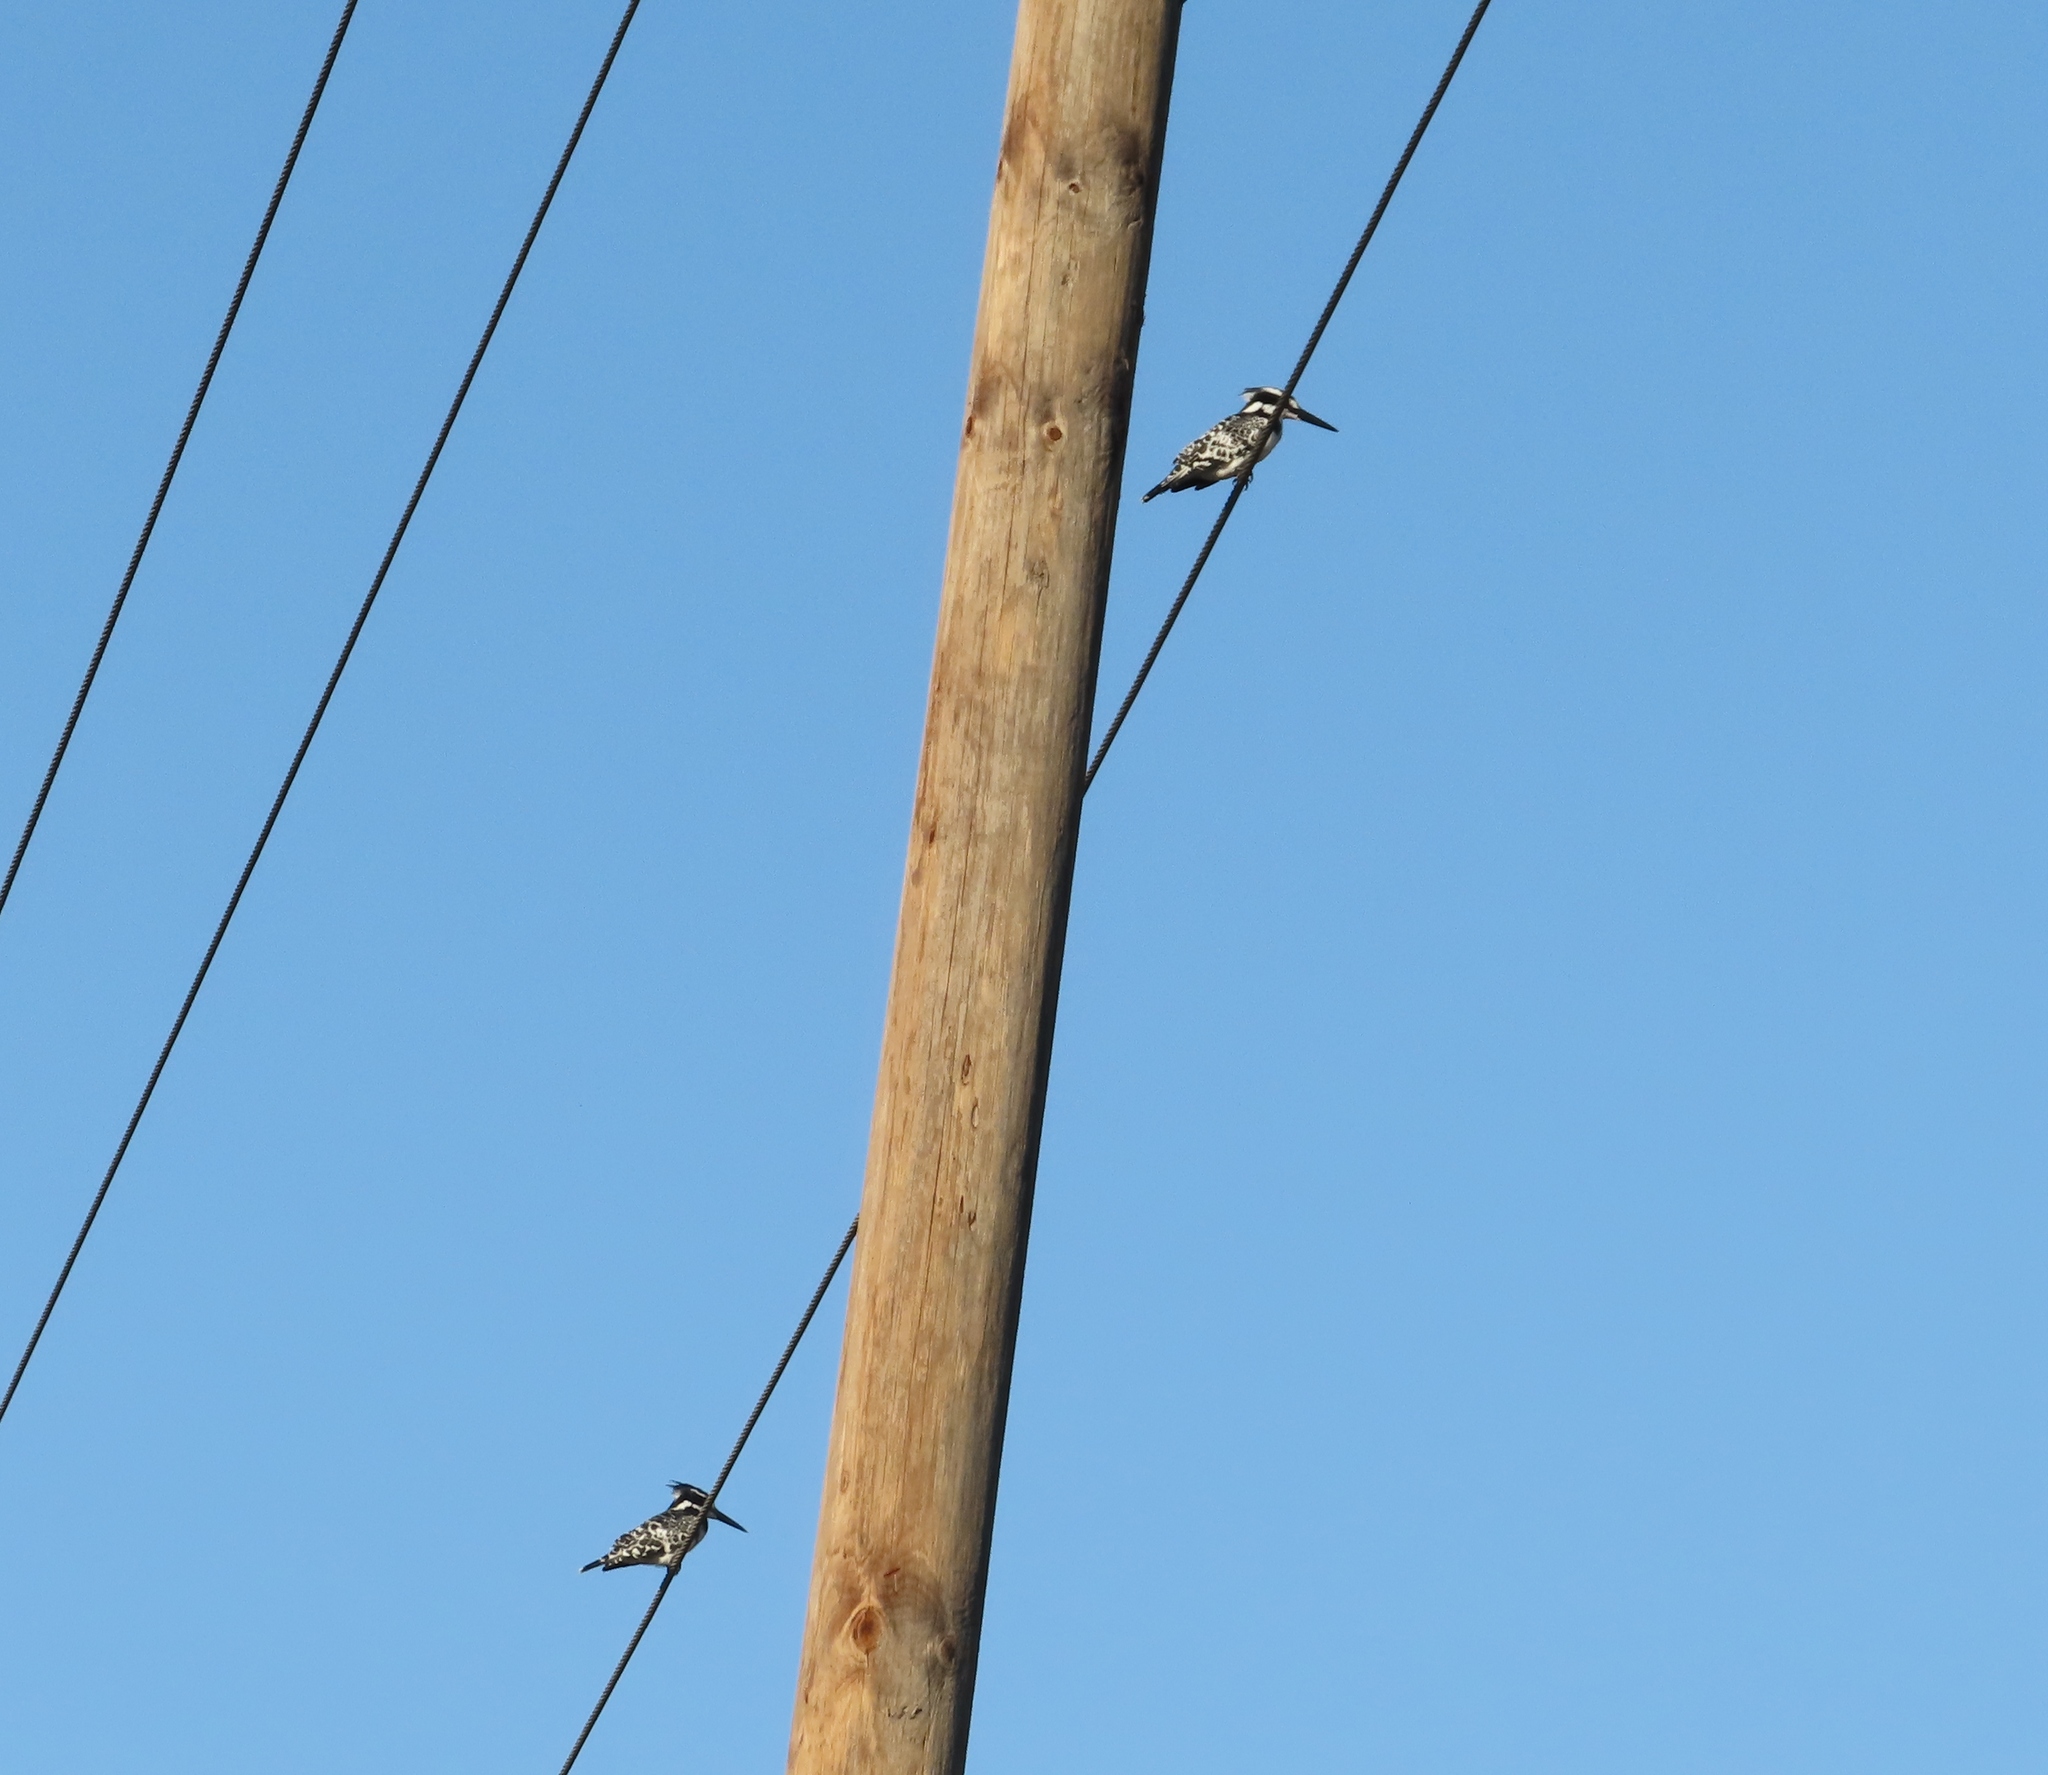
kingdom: Animalia
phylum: Chordata
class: Aves
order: Coraciiformes
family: Alcedinidae
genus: Ceryle
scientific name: Ceryle rudis
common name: Pied kingfisher
